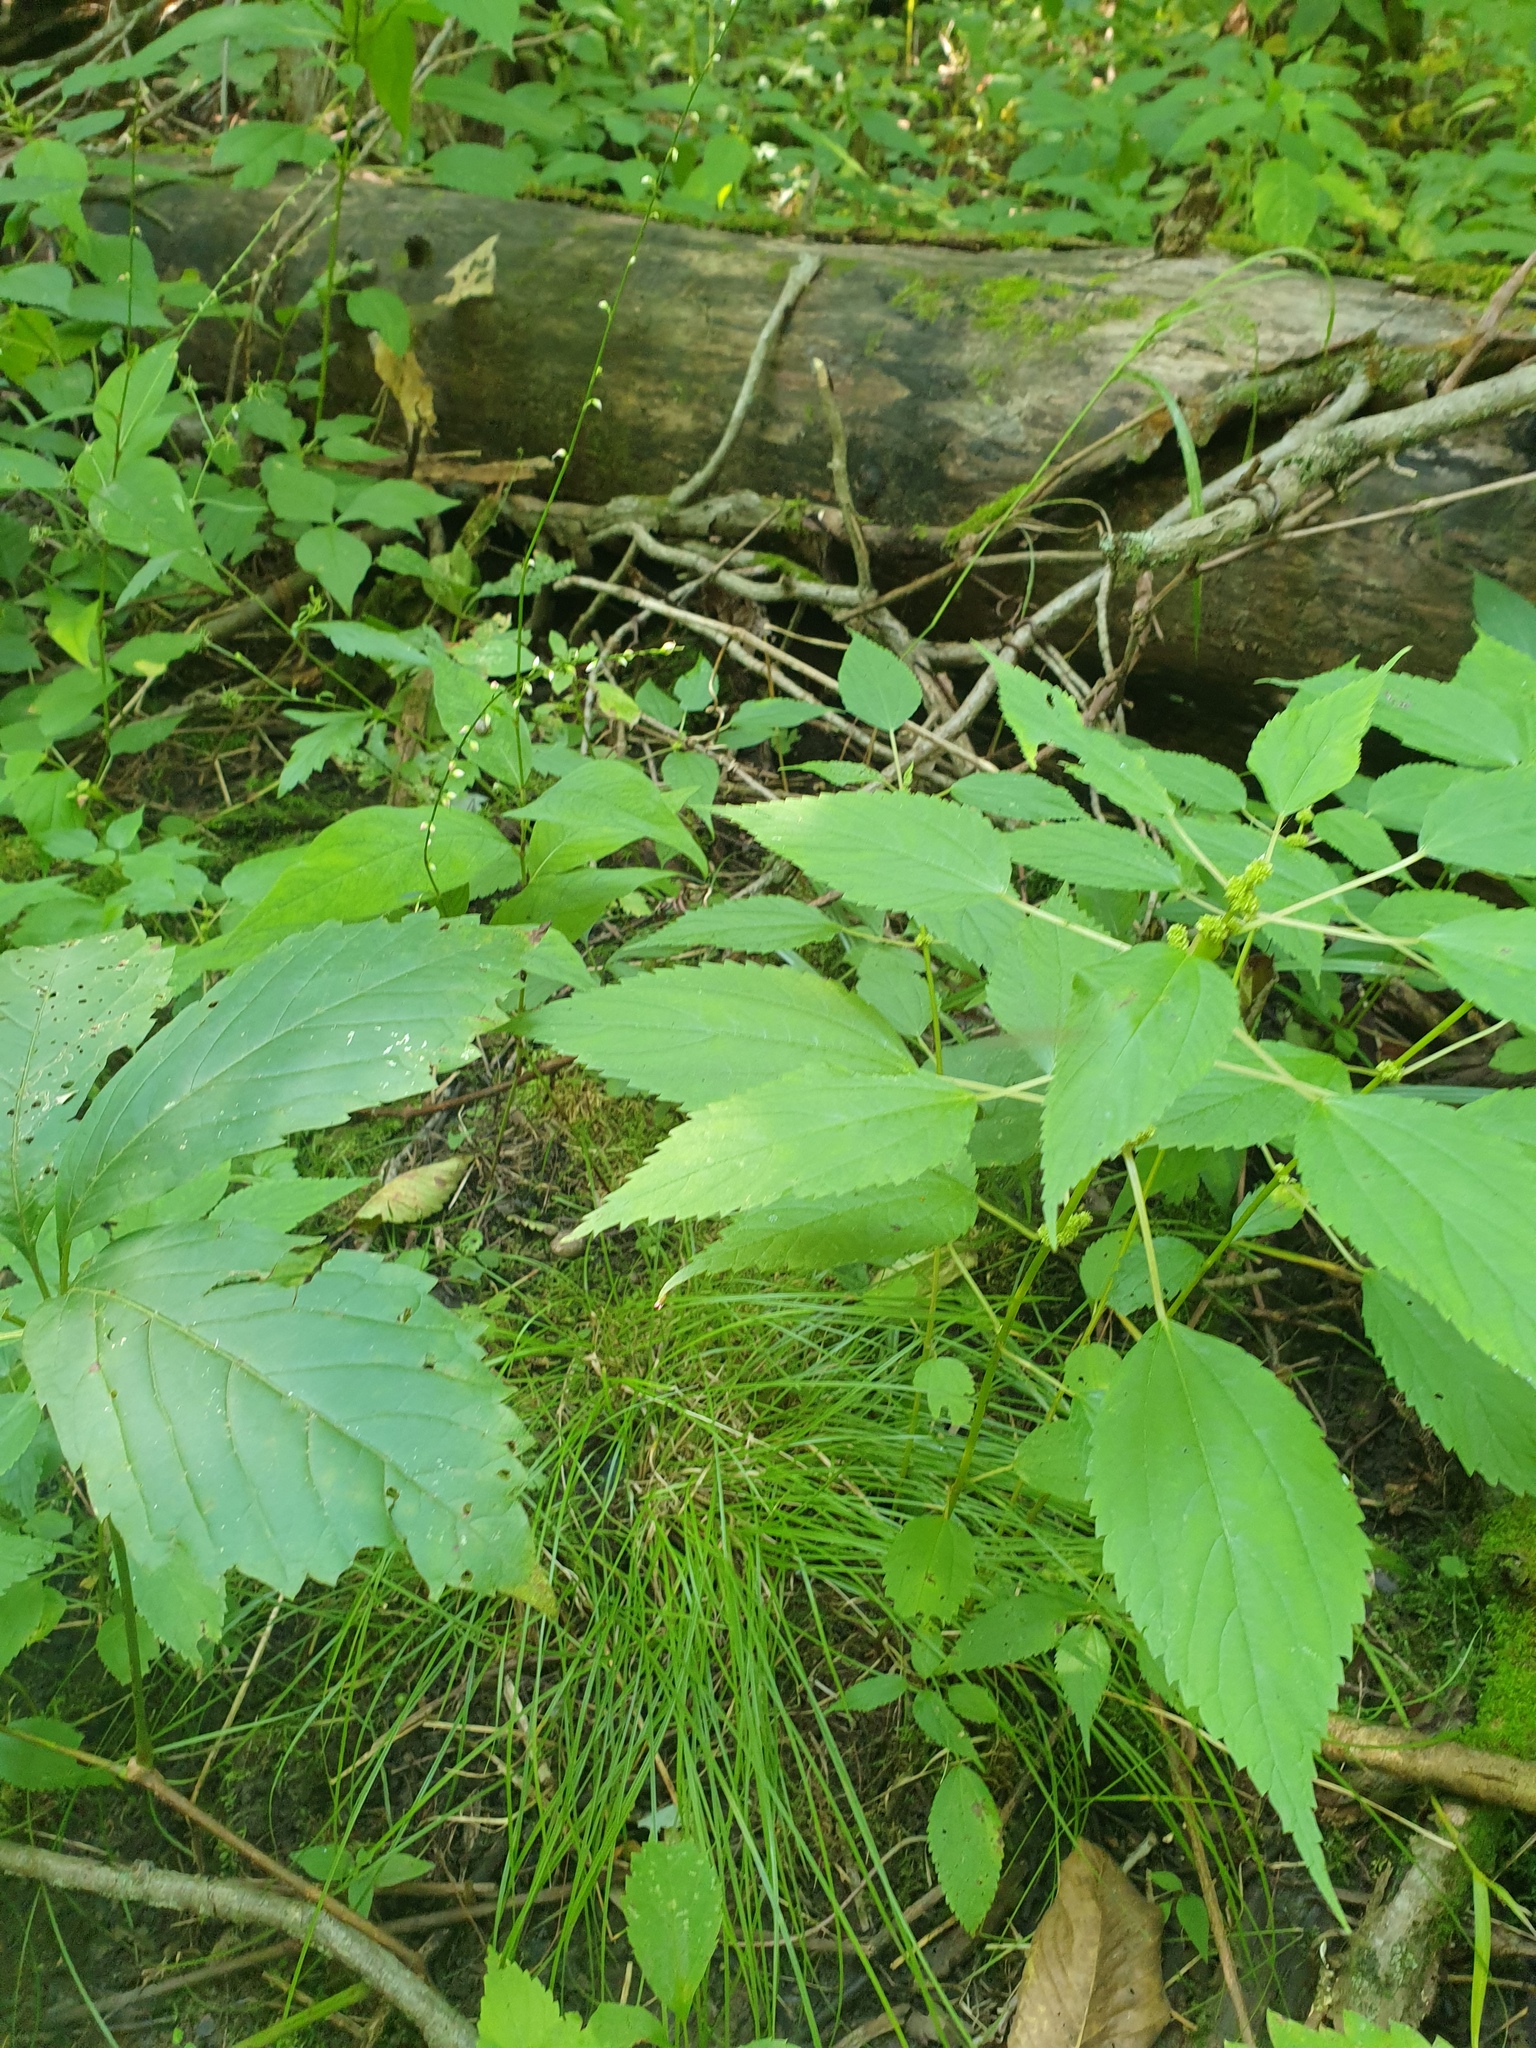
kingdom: Plantae
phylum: Tracheophyta
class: Magnoliopsida
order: Rosales
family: Urticaceae
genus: Boehmeria
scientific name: Boehmeria cylindrica
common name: Bog-hemp
